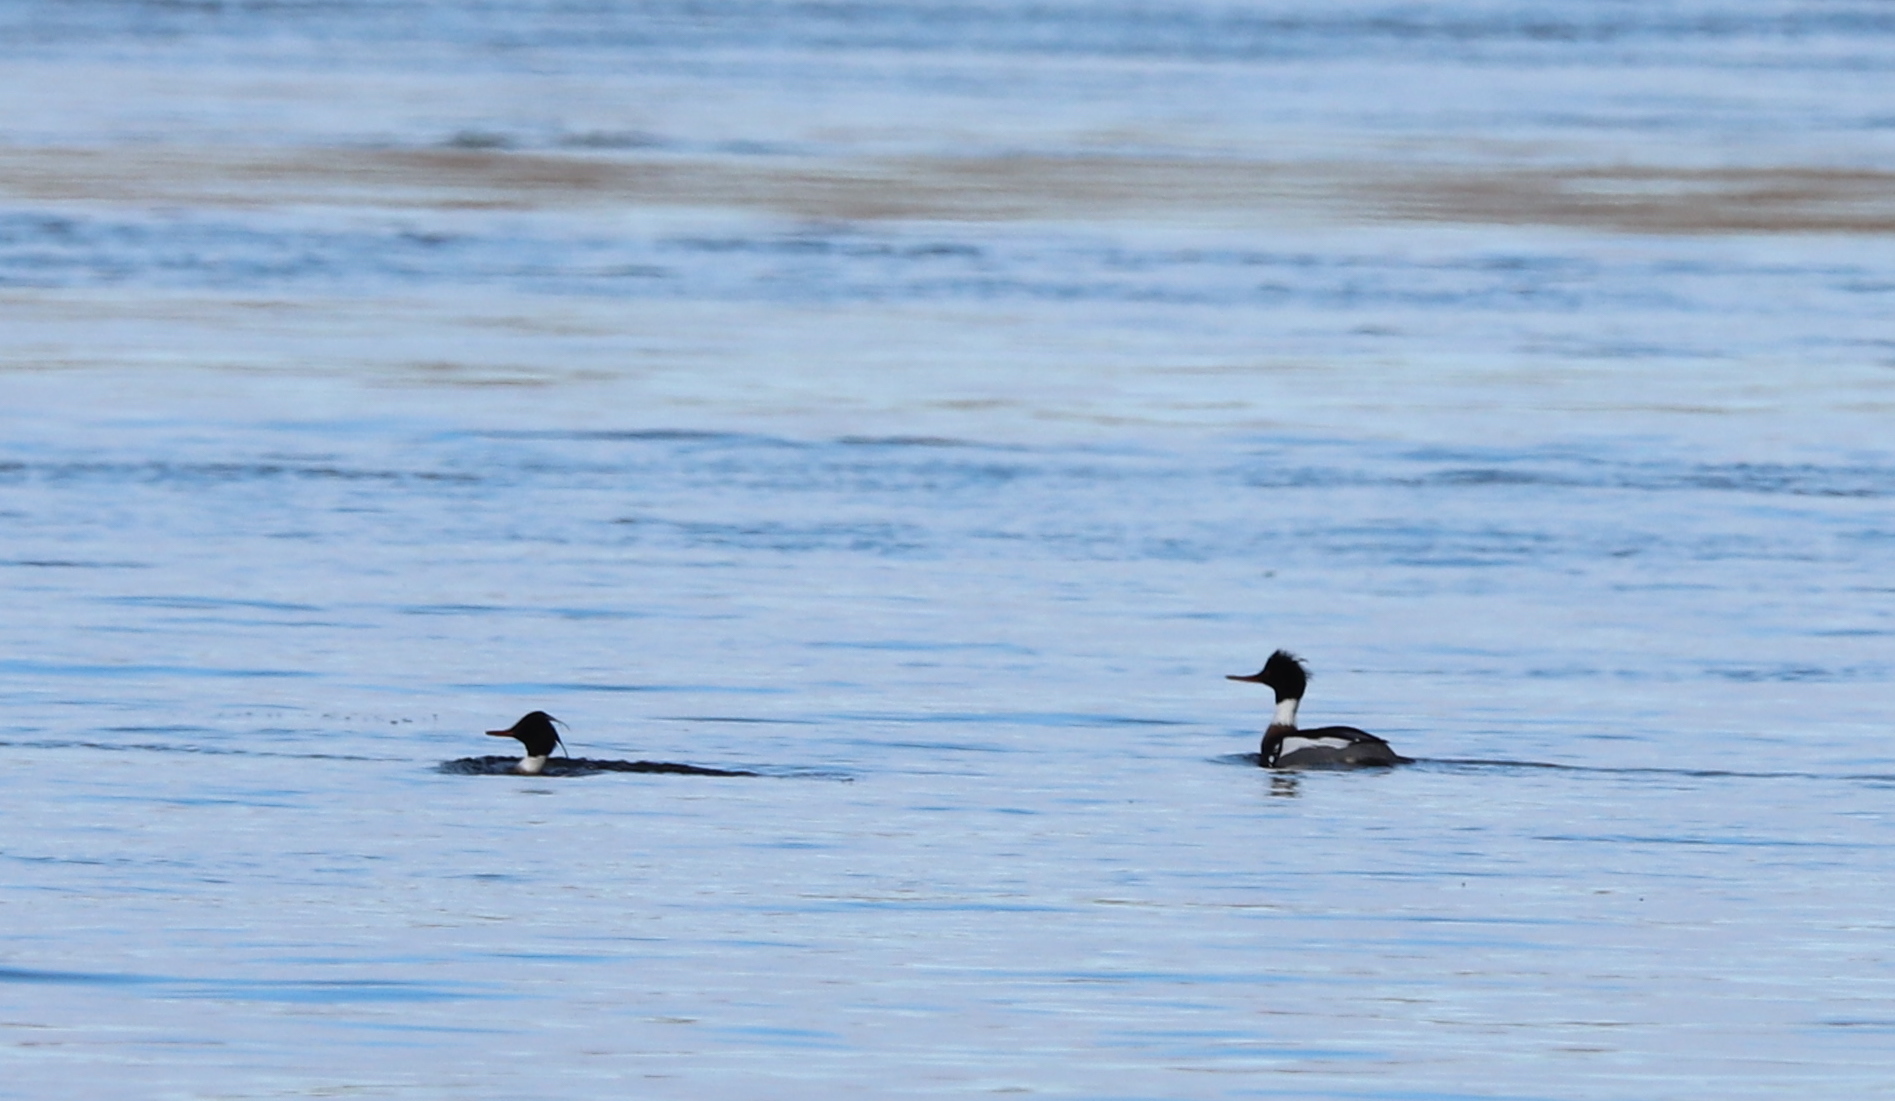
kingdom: Animalia
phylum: Chordata
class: Aves
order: Anseriformes
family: Anatidae
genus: Mergus
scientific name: Mergus serrator
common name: Red-breasted merganser
